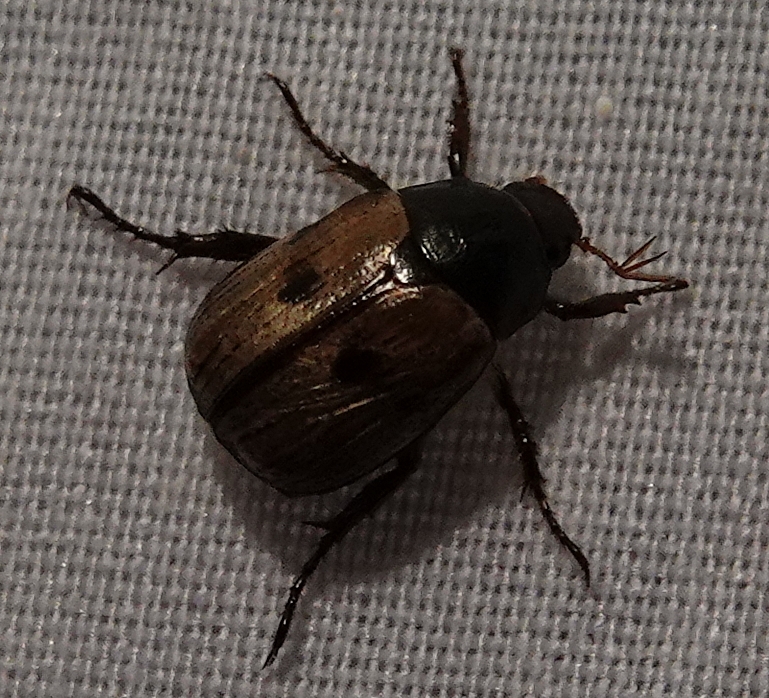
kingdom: Animalia
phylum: Arthropoda
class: Insecta
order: Coleoptera
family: Scarabaeidae
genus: Paranomala
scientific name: Paranomala binotata
